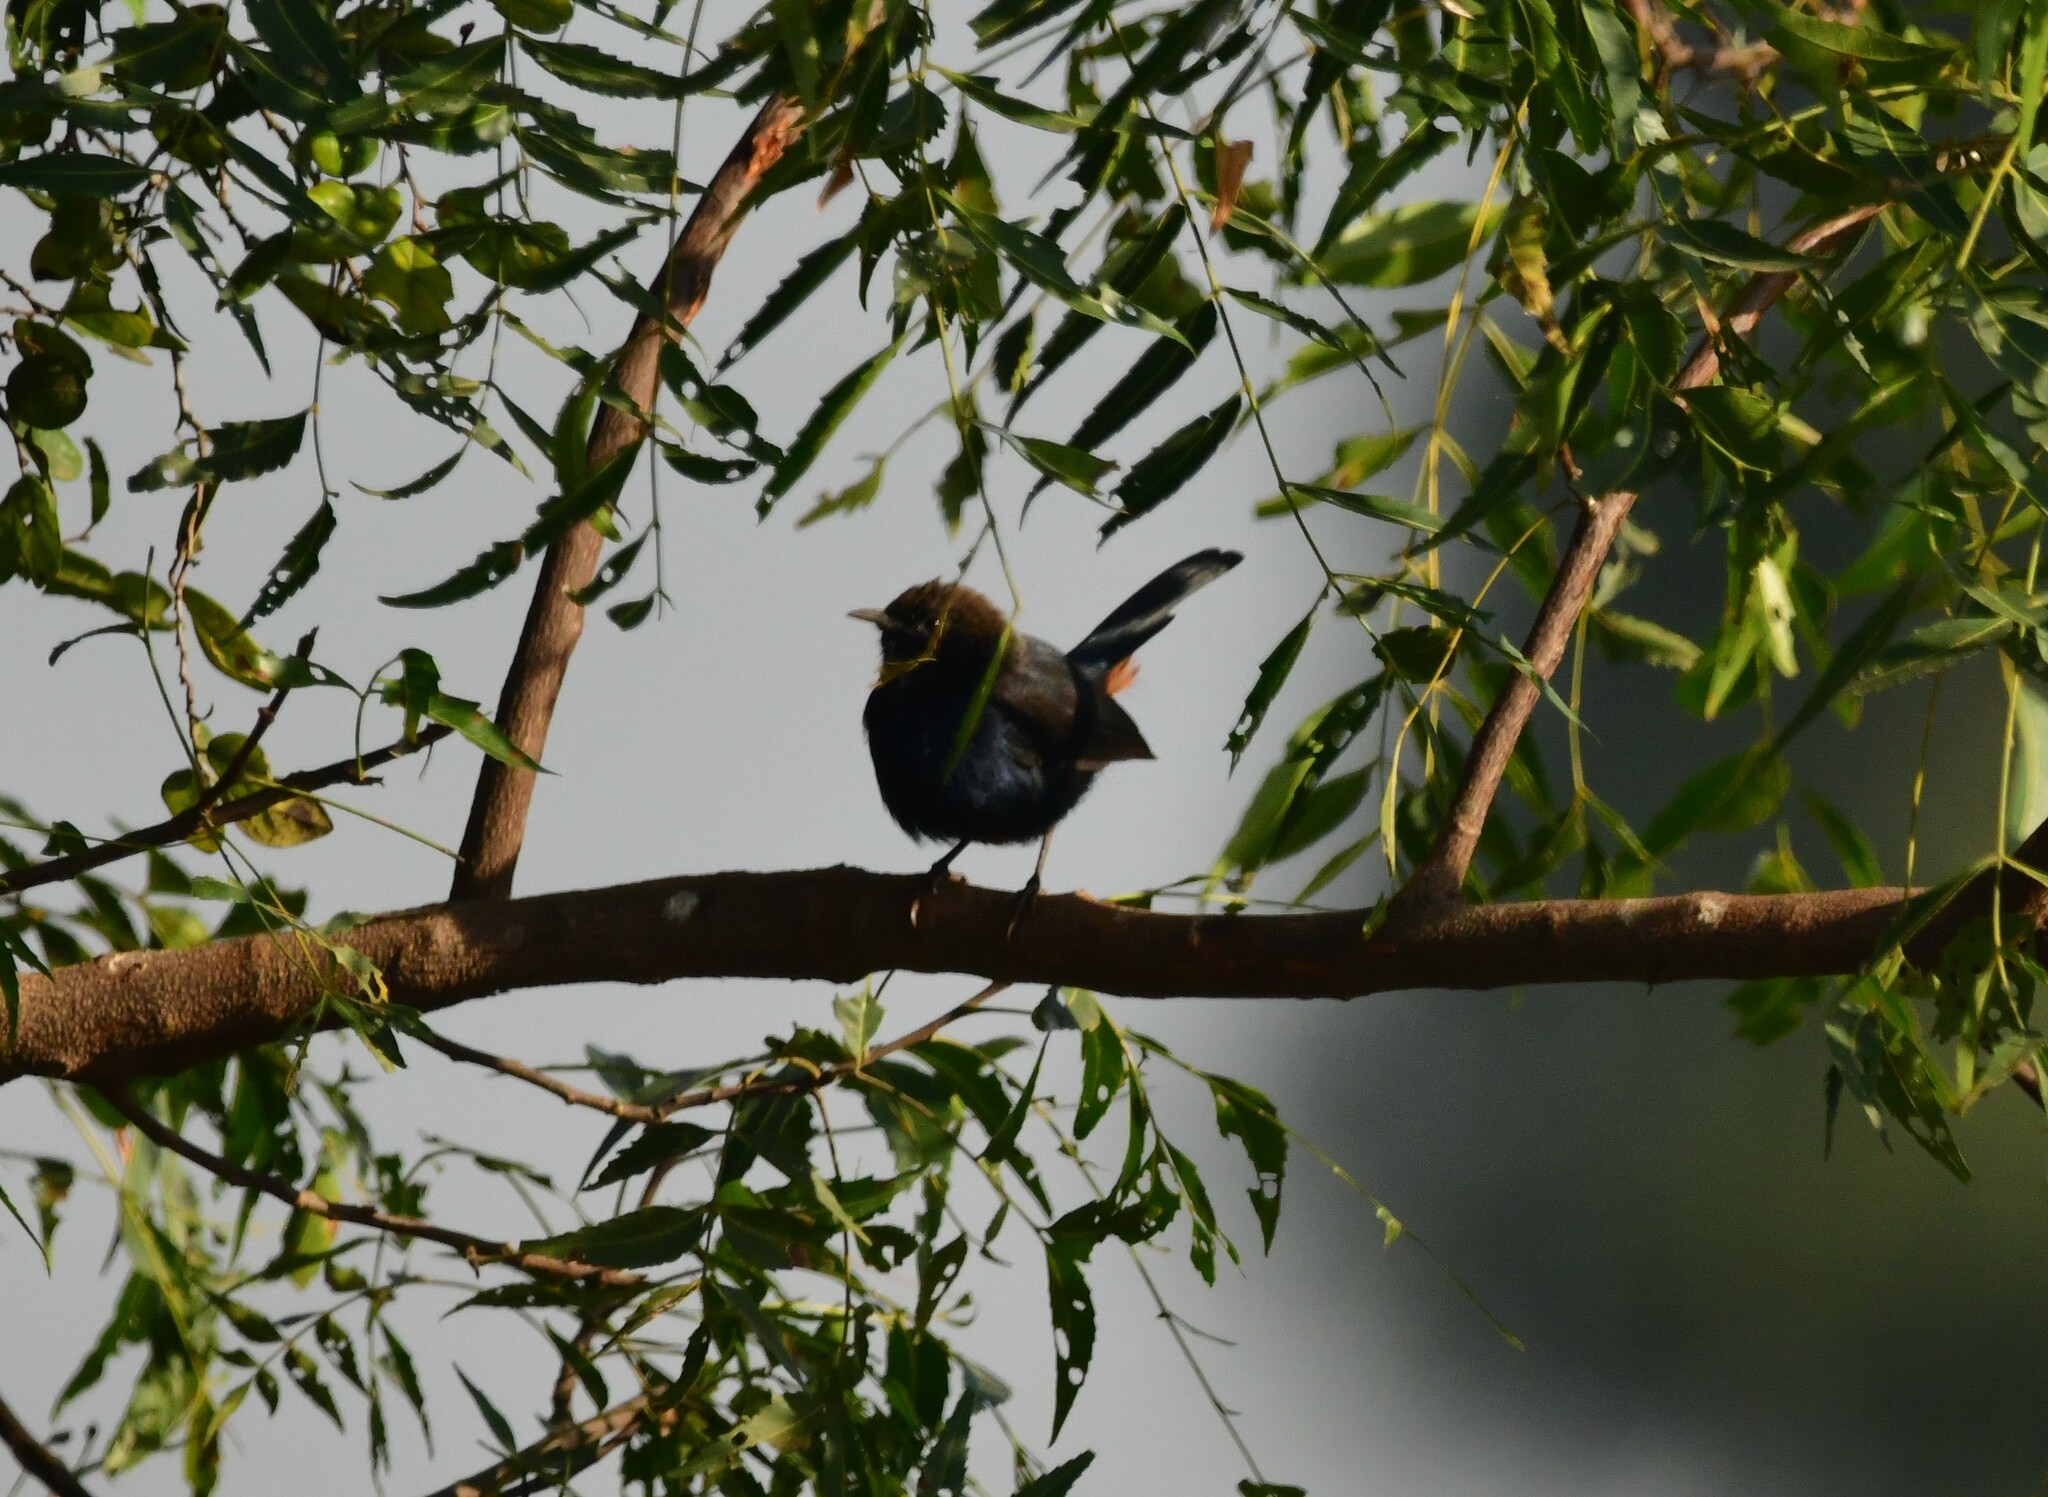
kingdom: Animalia
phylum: Chordata
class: Aves
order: Passeriformes
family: Muscicapidae
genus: Saxicoloides
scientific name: Saxicoloides fulicatus
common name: Indian robin
